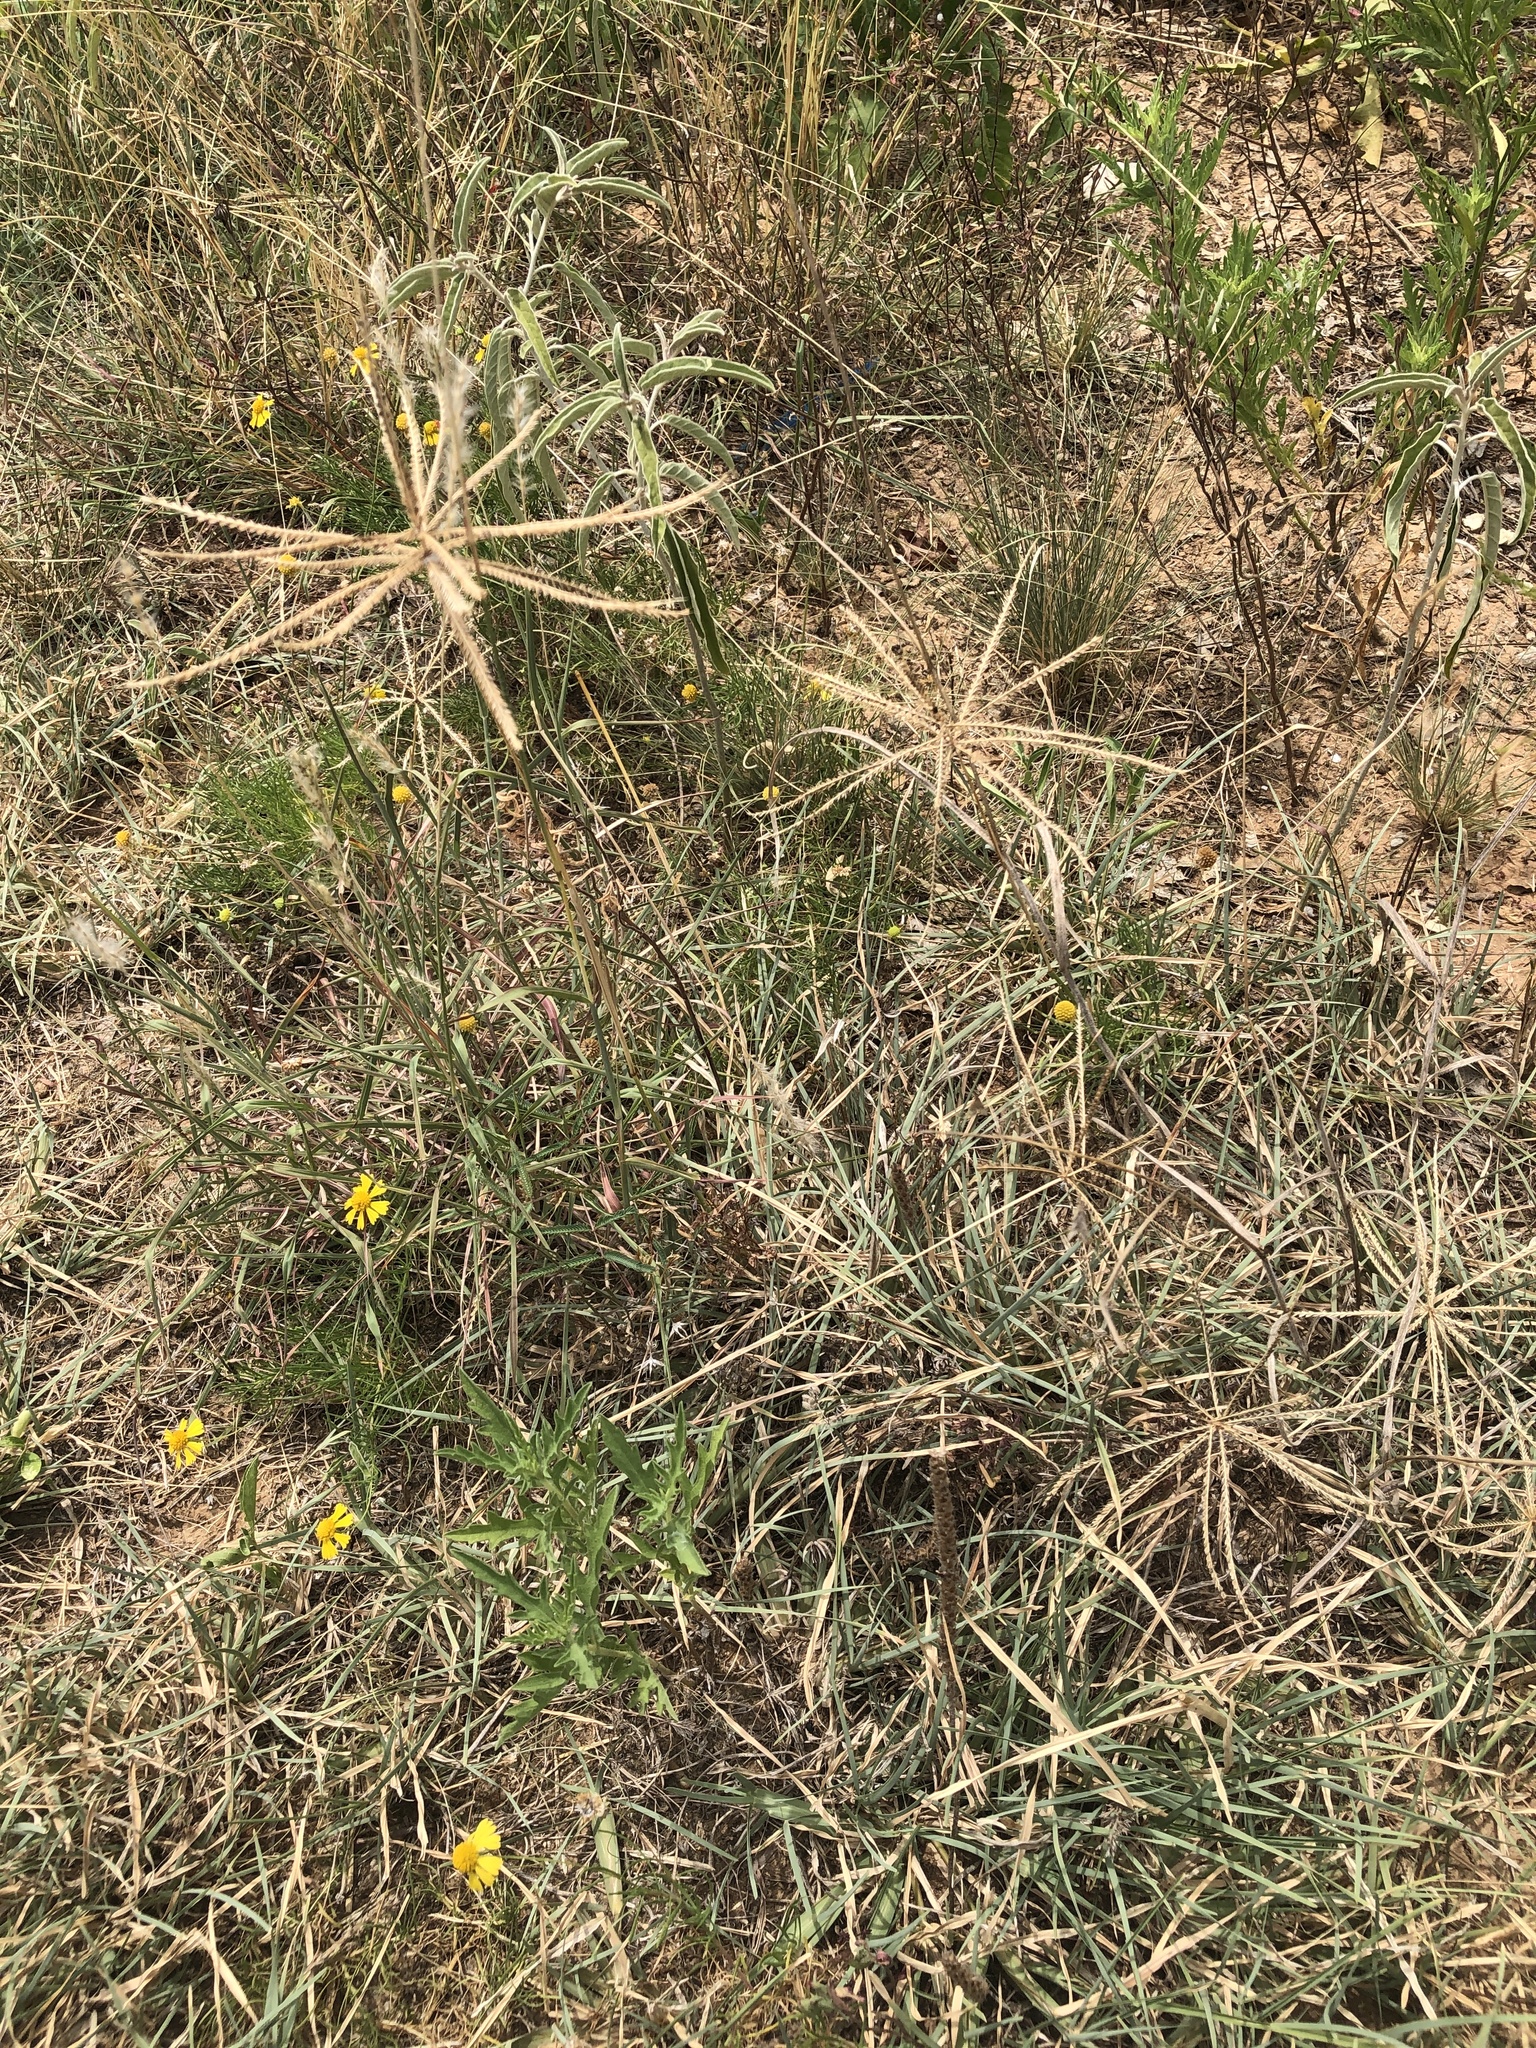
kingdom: Plantae
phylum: Tracheophyta
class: Liliopsida
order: Poales
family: Poaceae
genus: Chloris
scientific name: Chloris verticillata
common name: Tumble windmill grass
